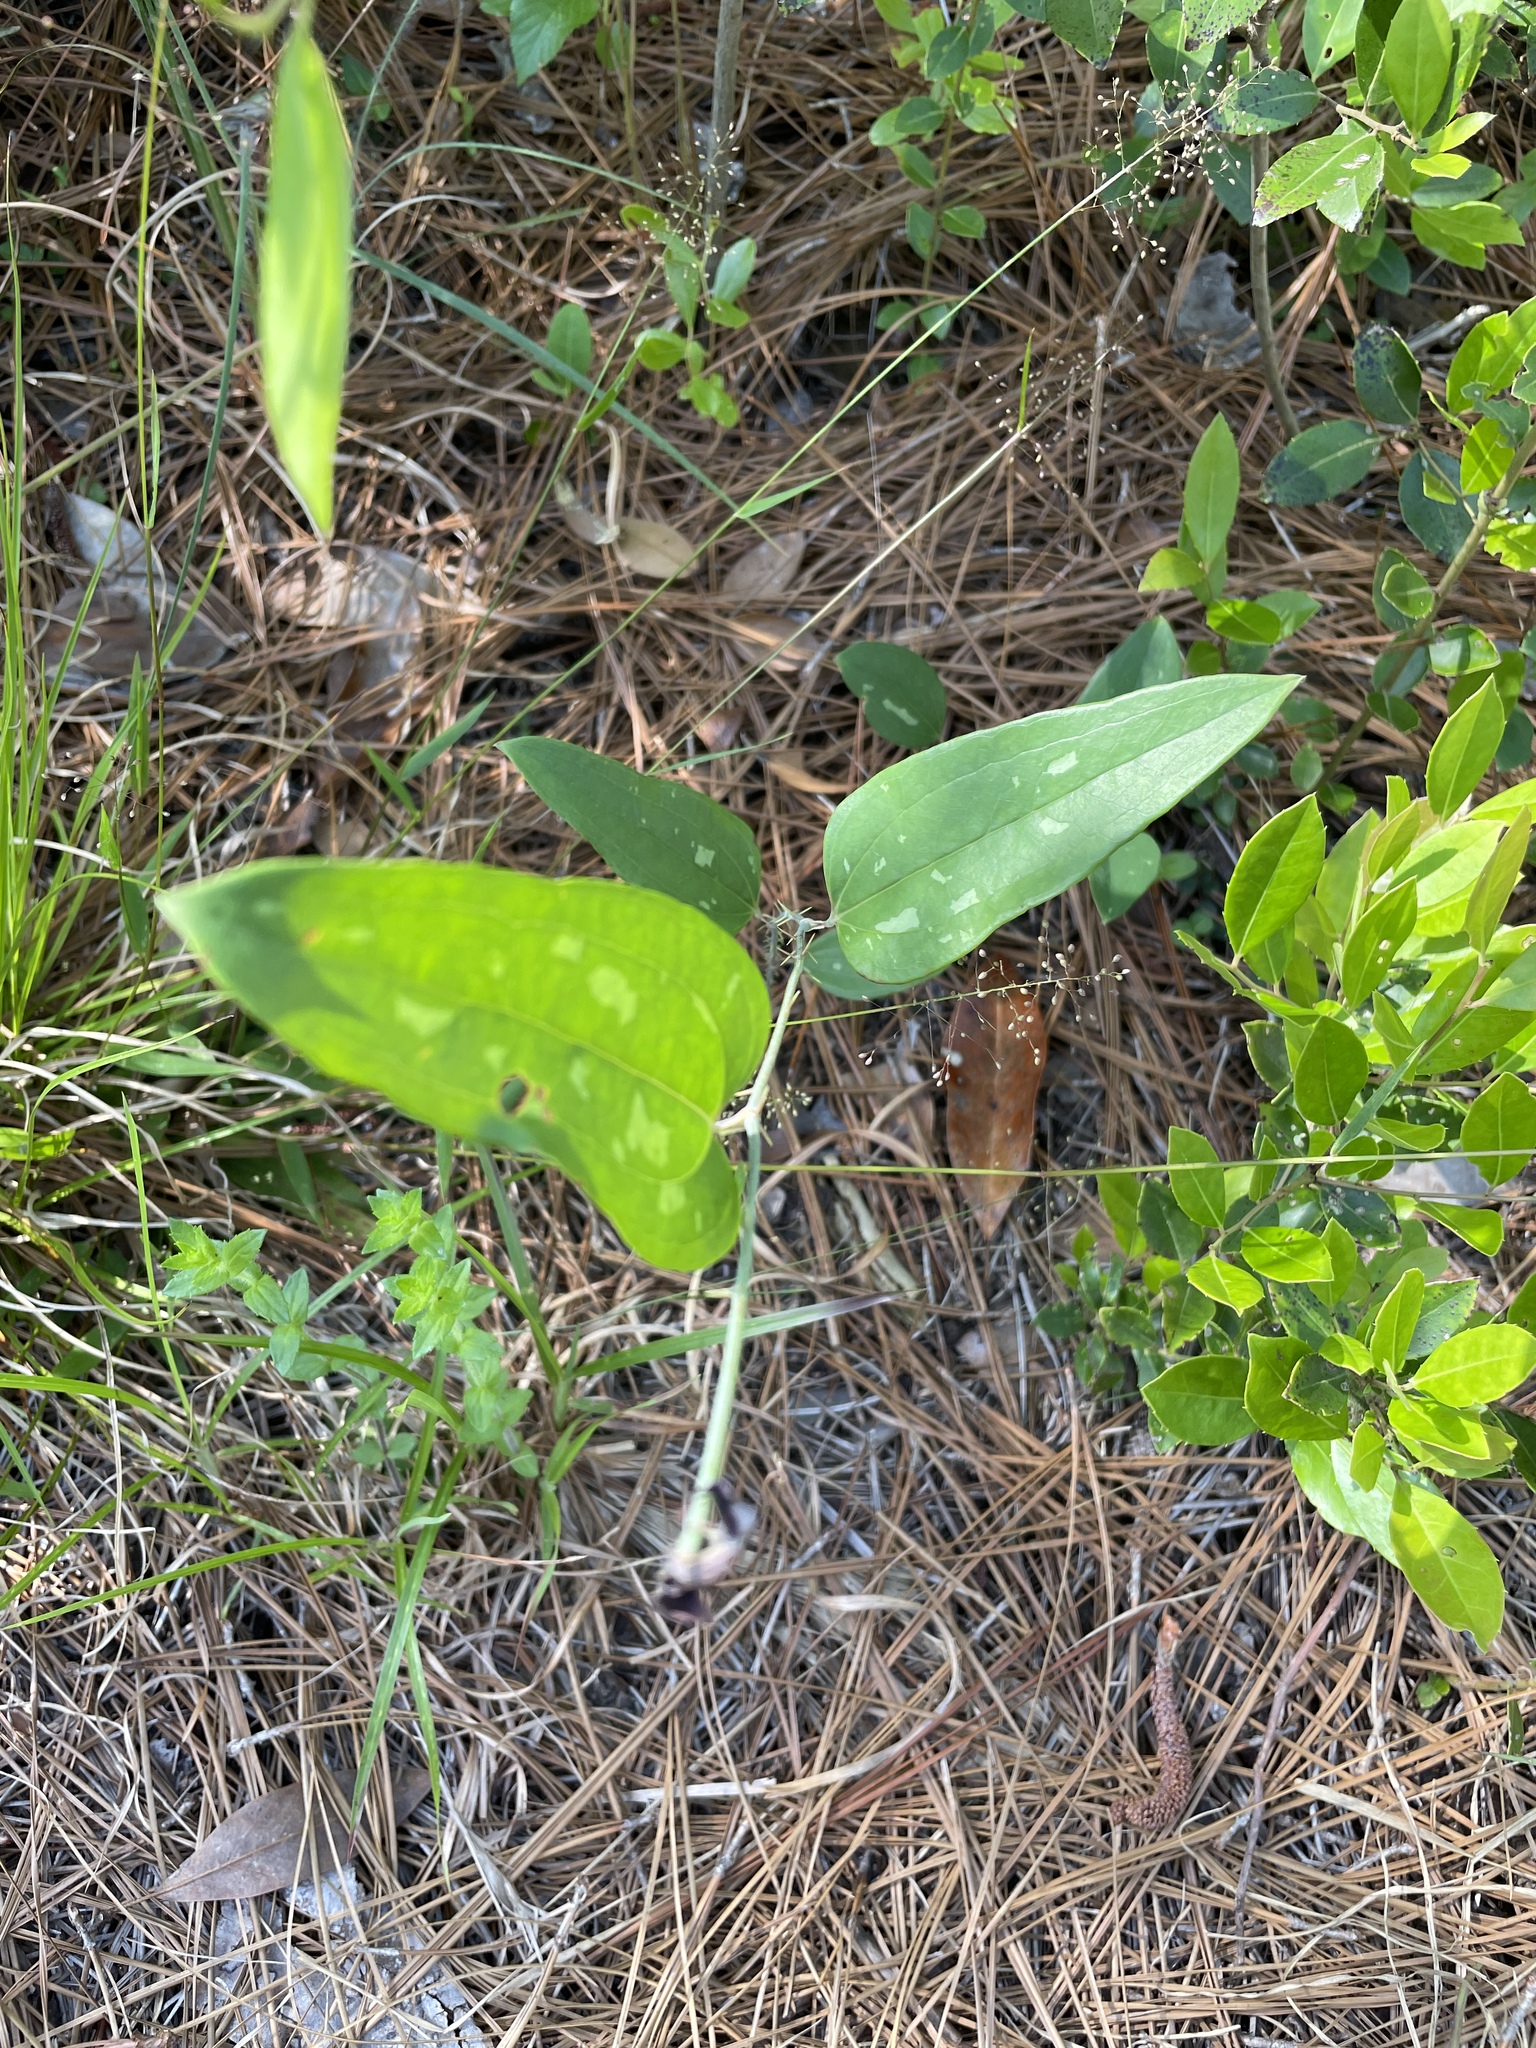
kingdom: Plantae
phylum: Tracheophyta
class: Liliopsida
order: Liliales
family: Smilacaceae
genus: Smilax
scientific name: Smilax glauca
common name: Cat greenbrier
